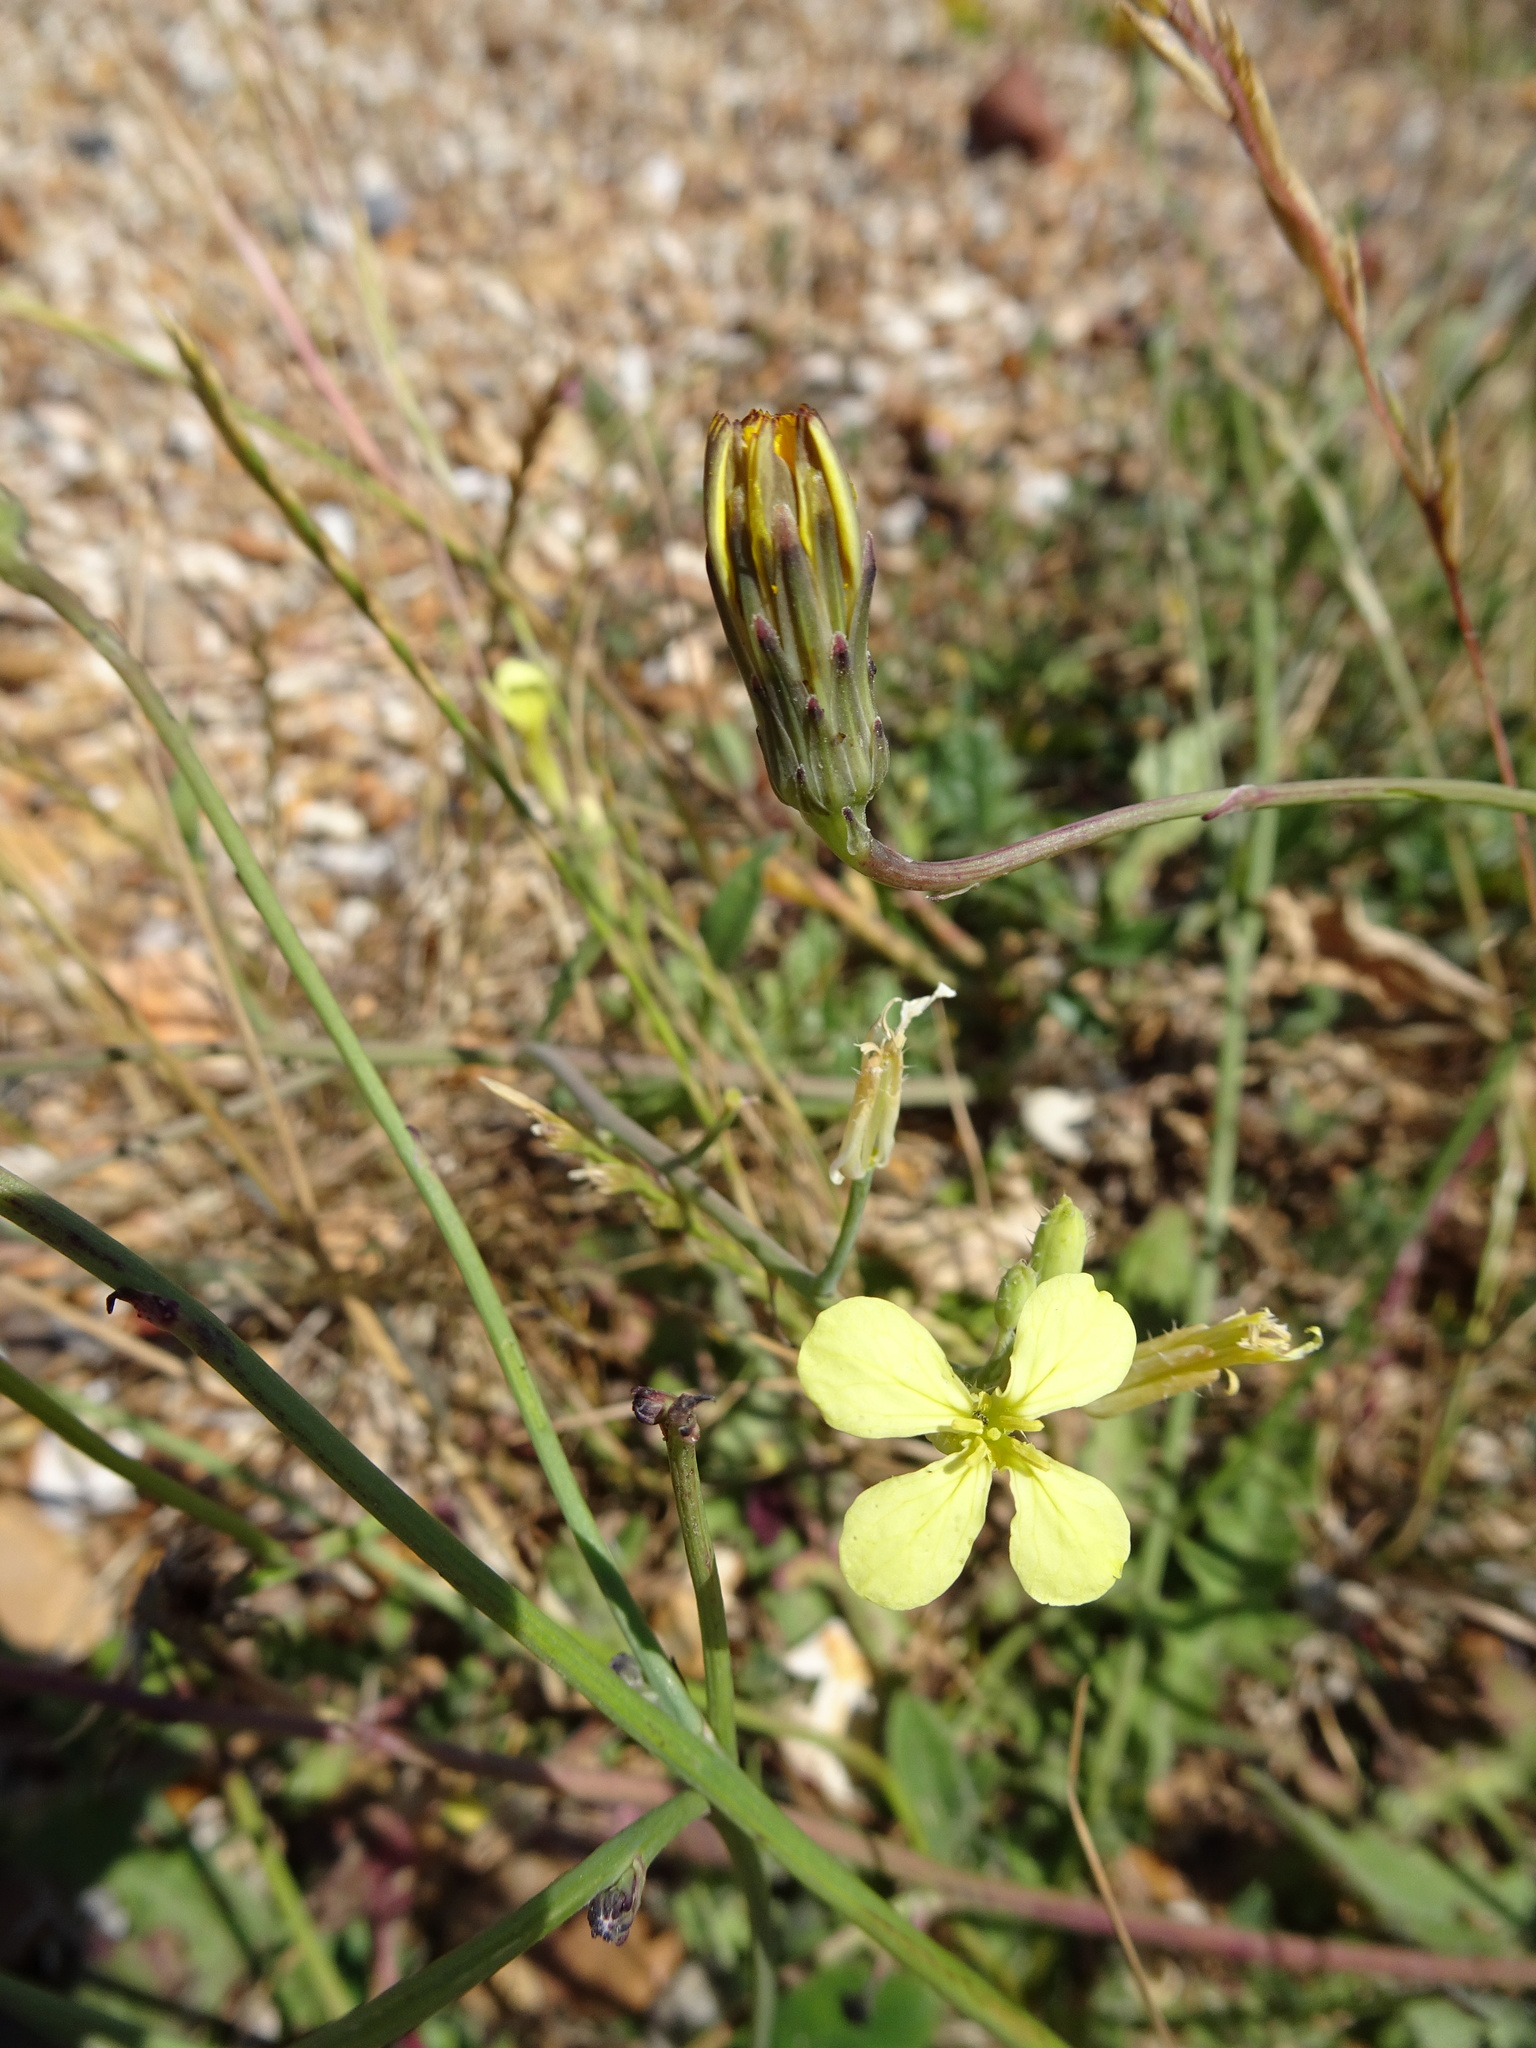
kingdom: Plantae
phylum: Tracheophyta
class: Magnoliopsida
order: Brassicales
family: Brassicaceae
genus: Raphanus
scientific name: Raphanus raphanistrum
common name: Wild radish
